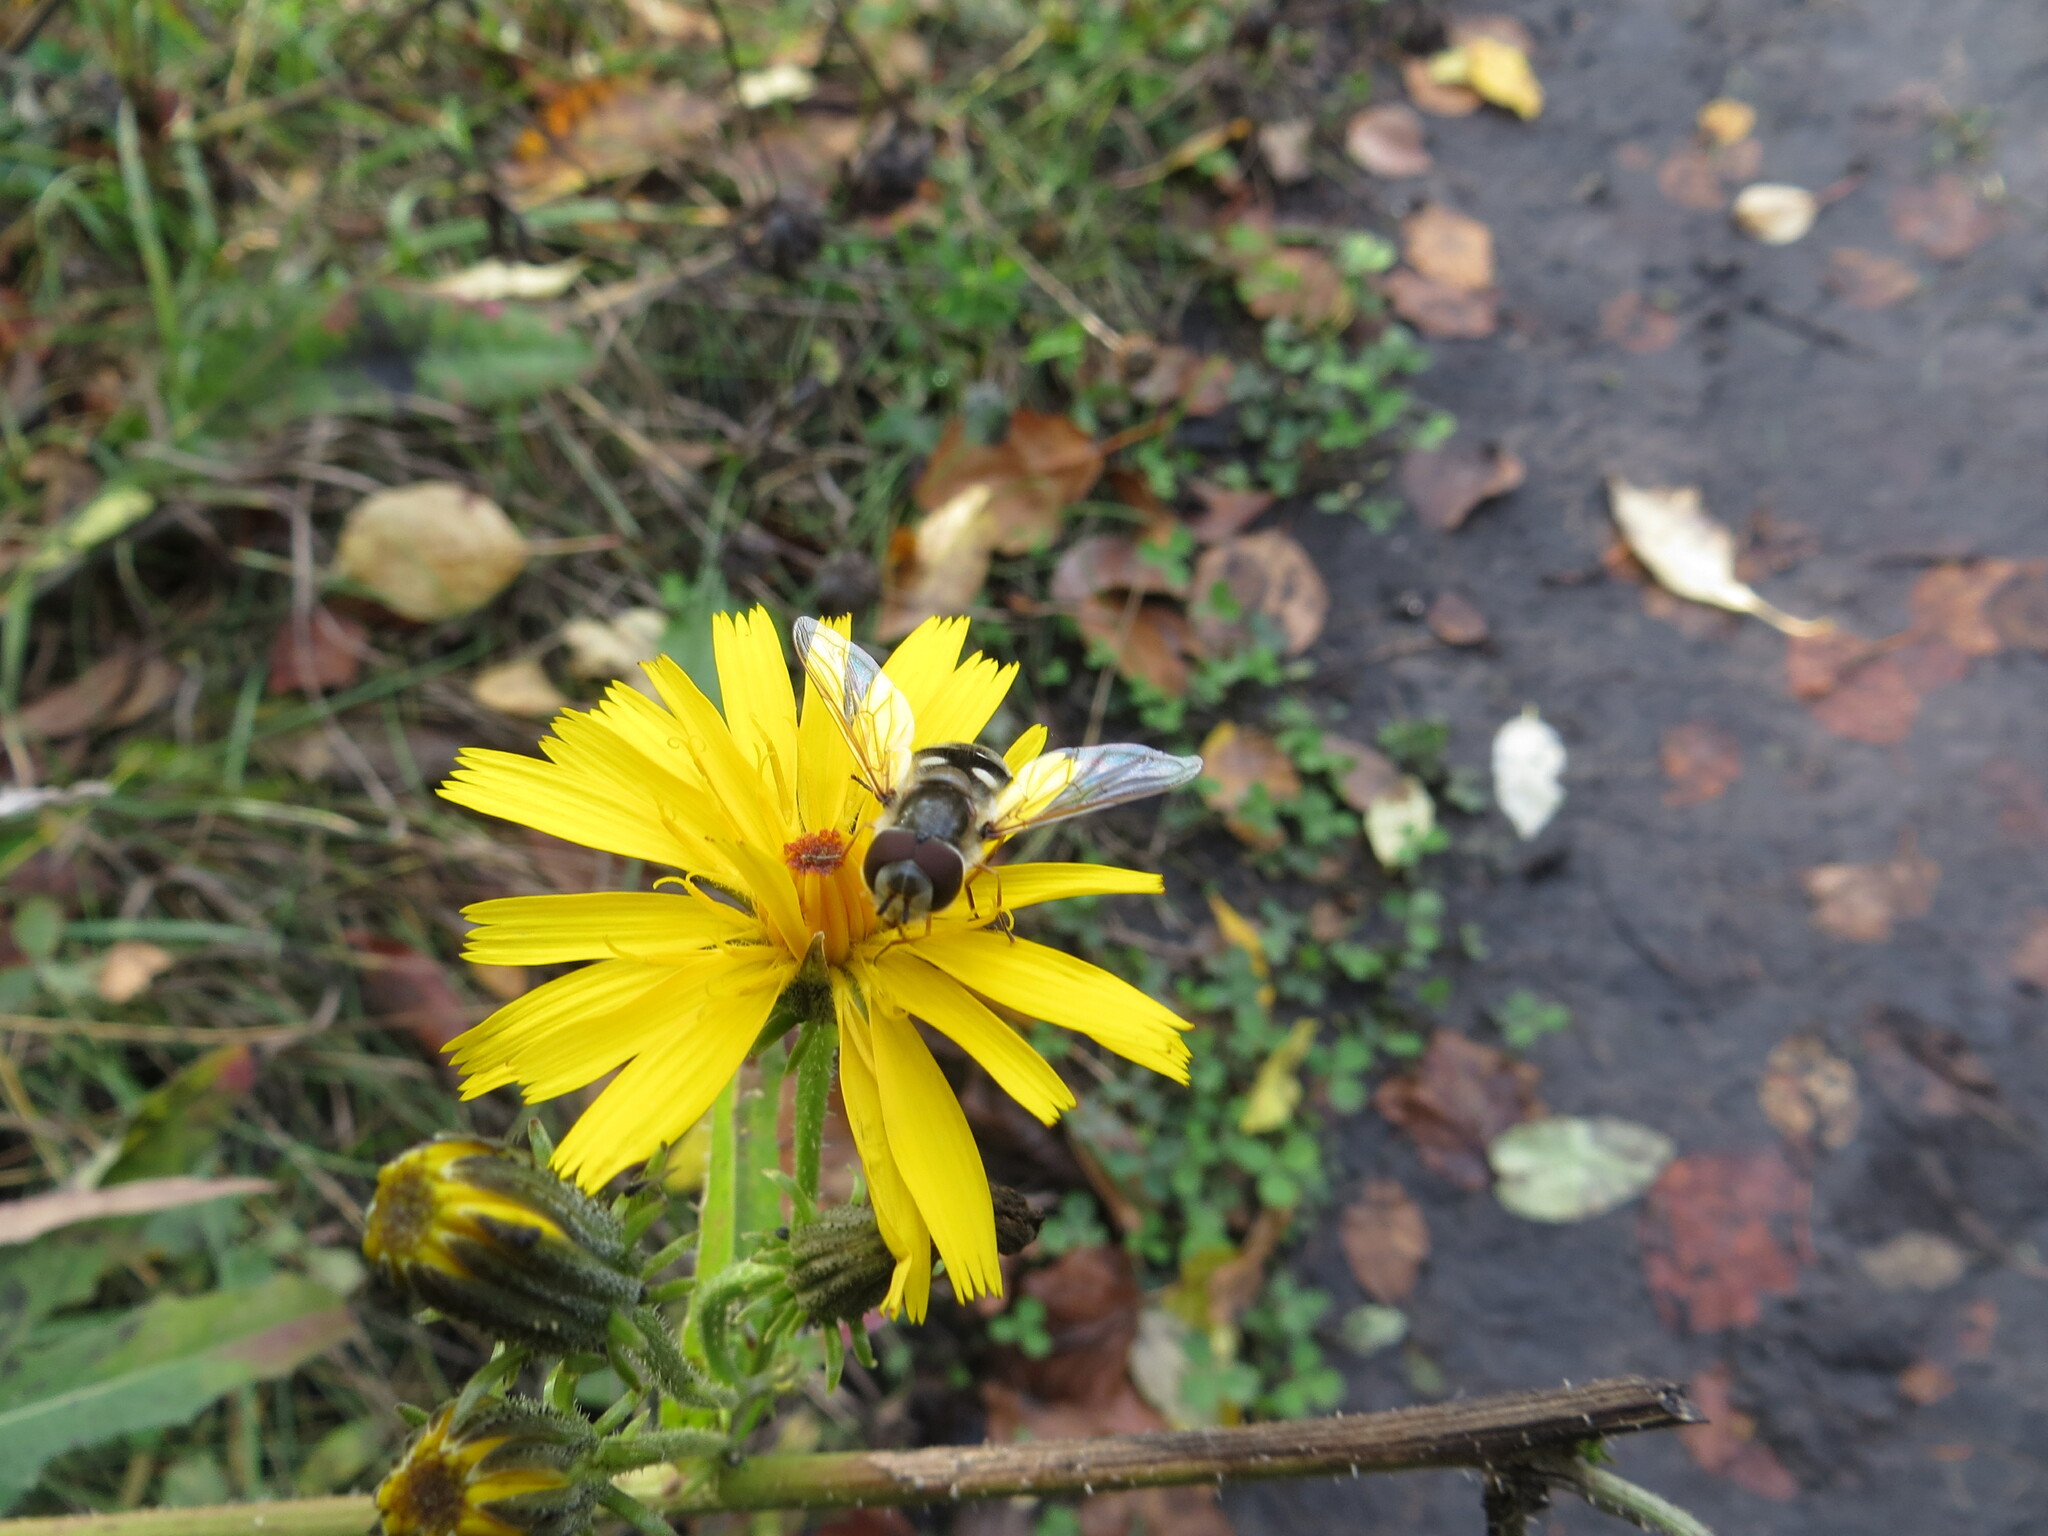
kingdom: Animalia
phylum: Arthropoda
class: Insecta
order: Diptera
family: Syrphidae
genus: Scaeva
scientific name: Scaeva pyrastri
